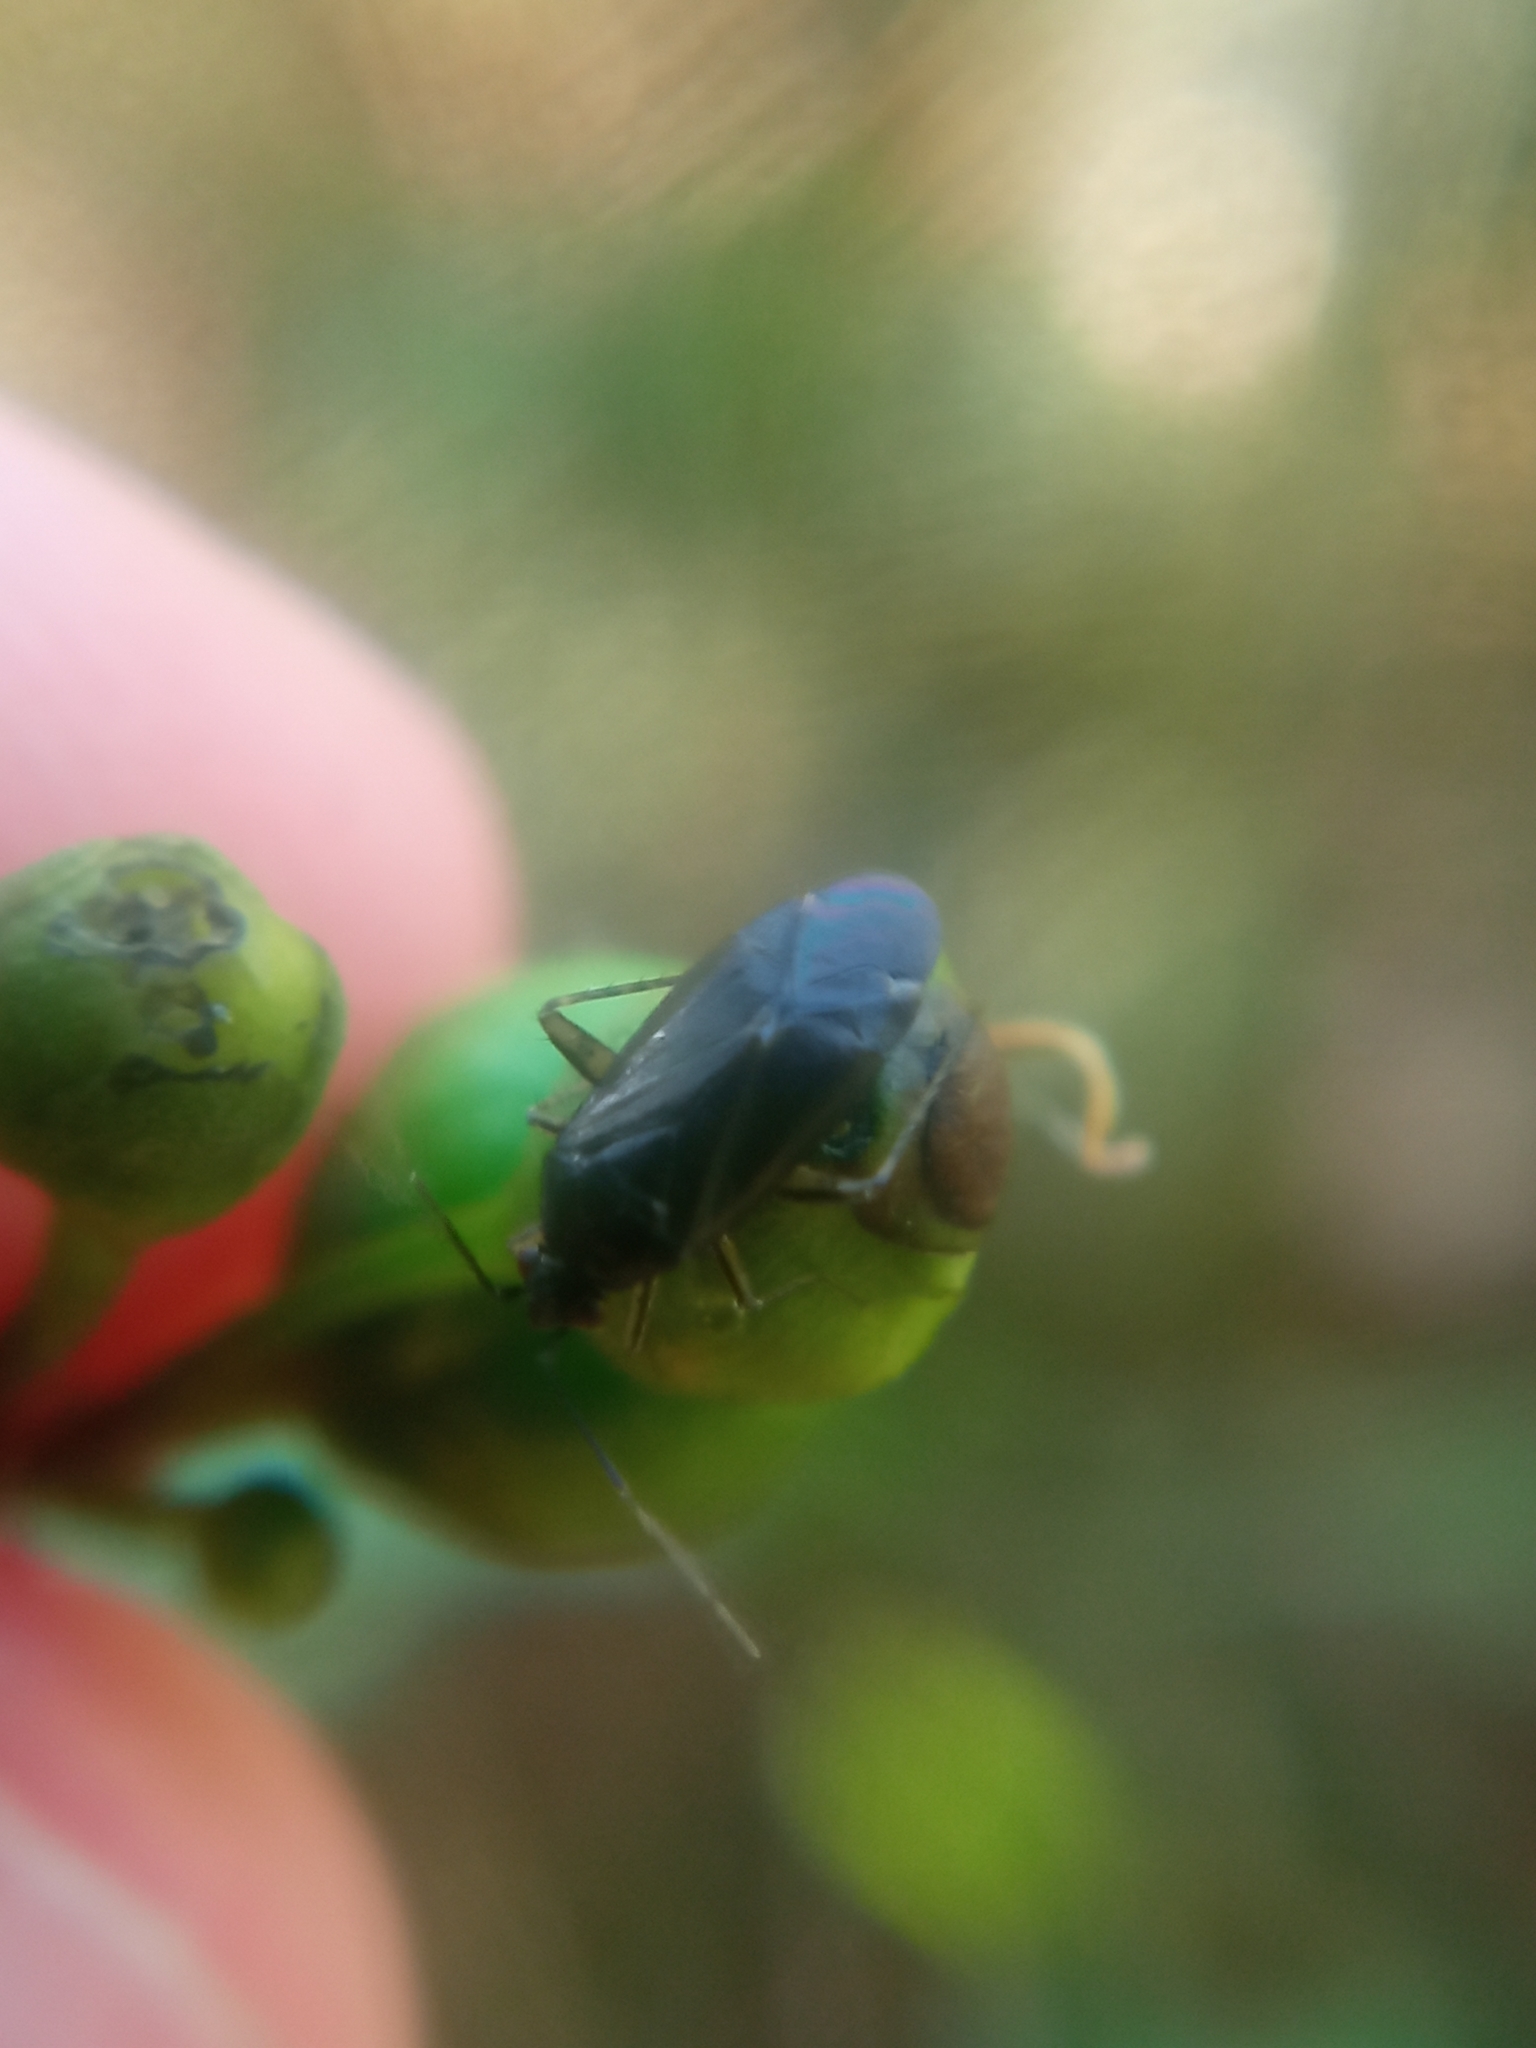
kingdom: Animalia
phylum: Arthropoda
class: Insecta
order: Hemiptera
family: Miridae
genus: Plagiognathus
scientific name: Plagiognathus arbustorum
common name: Plant bug
